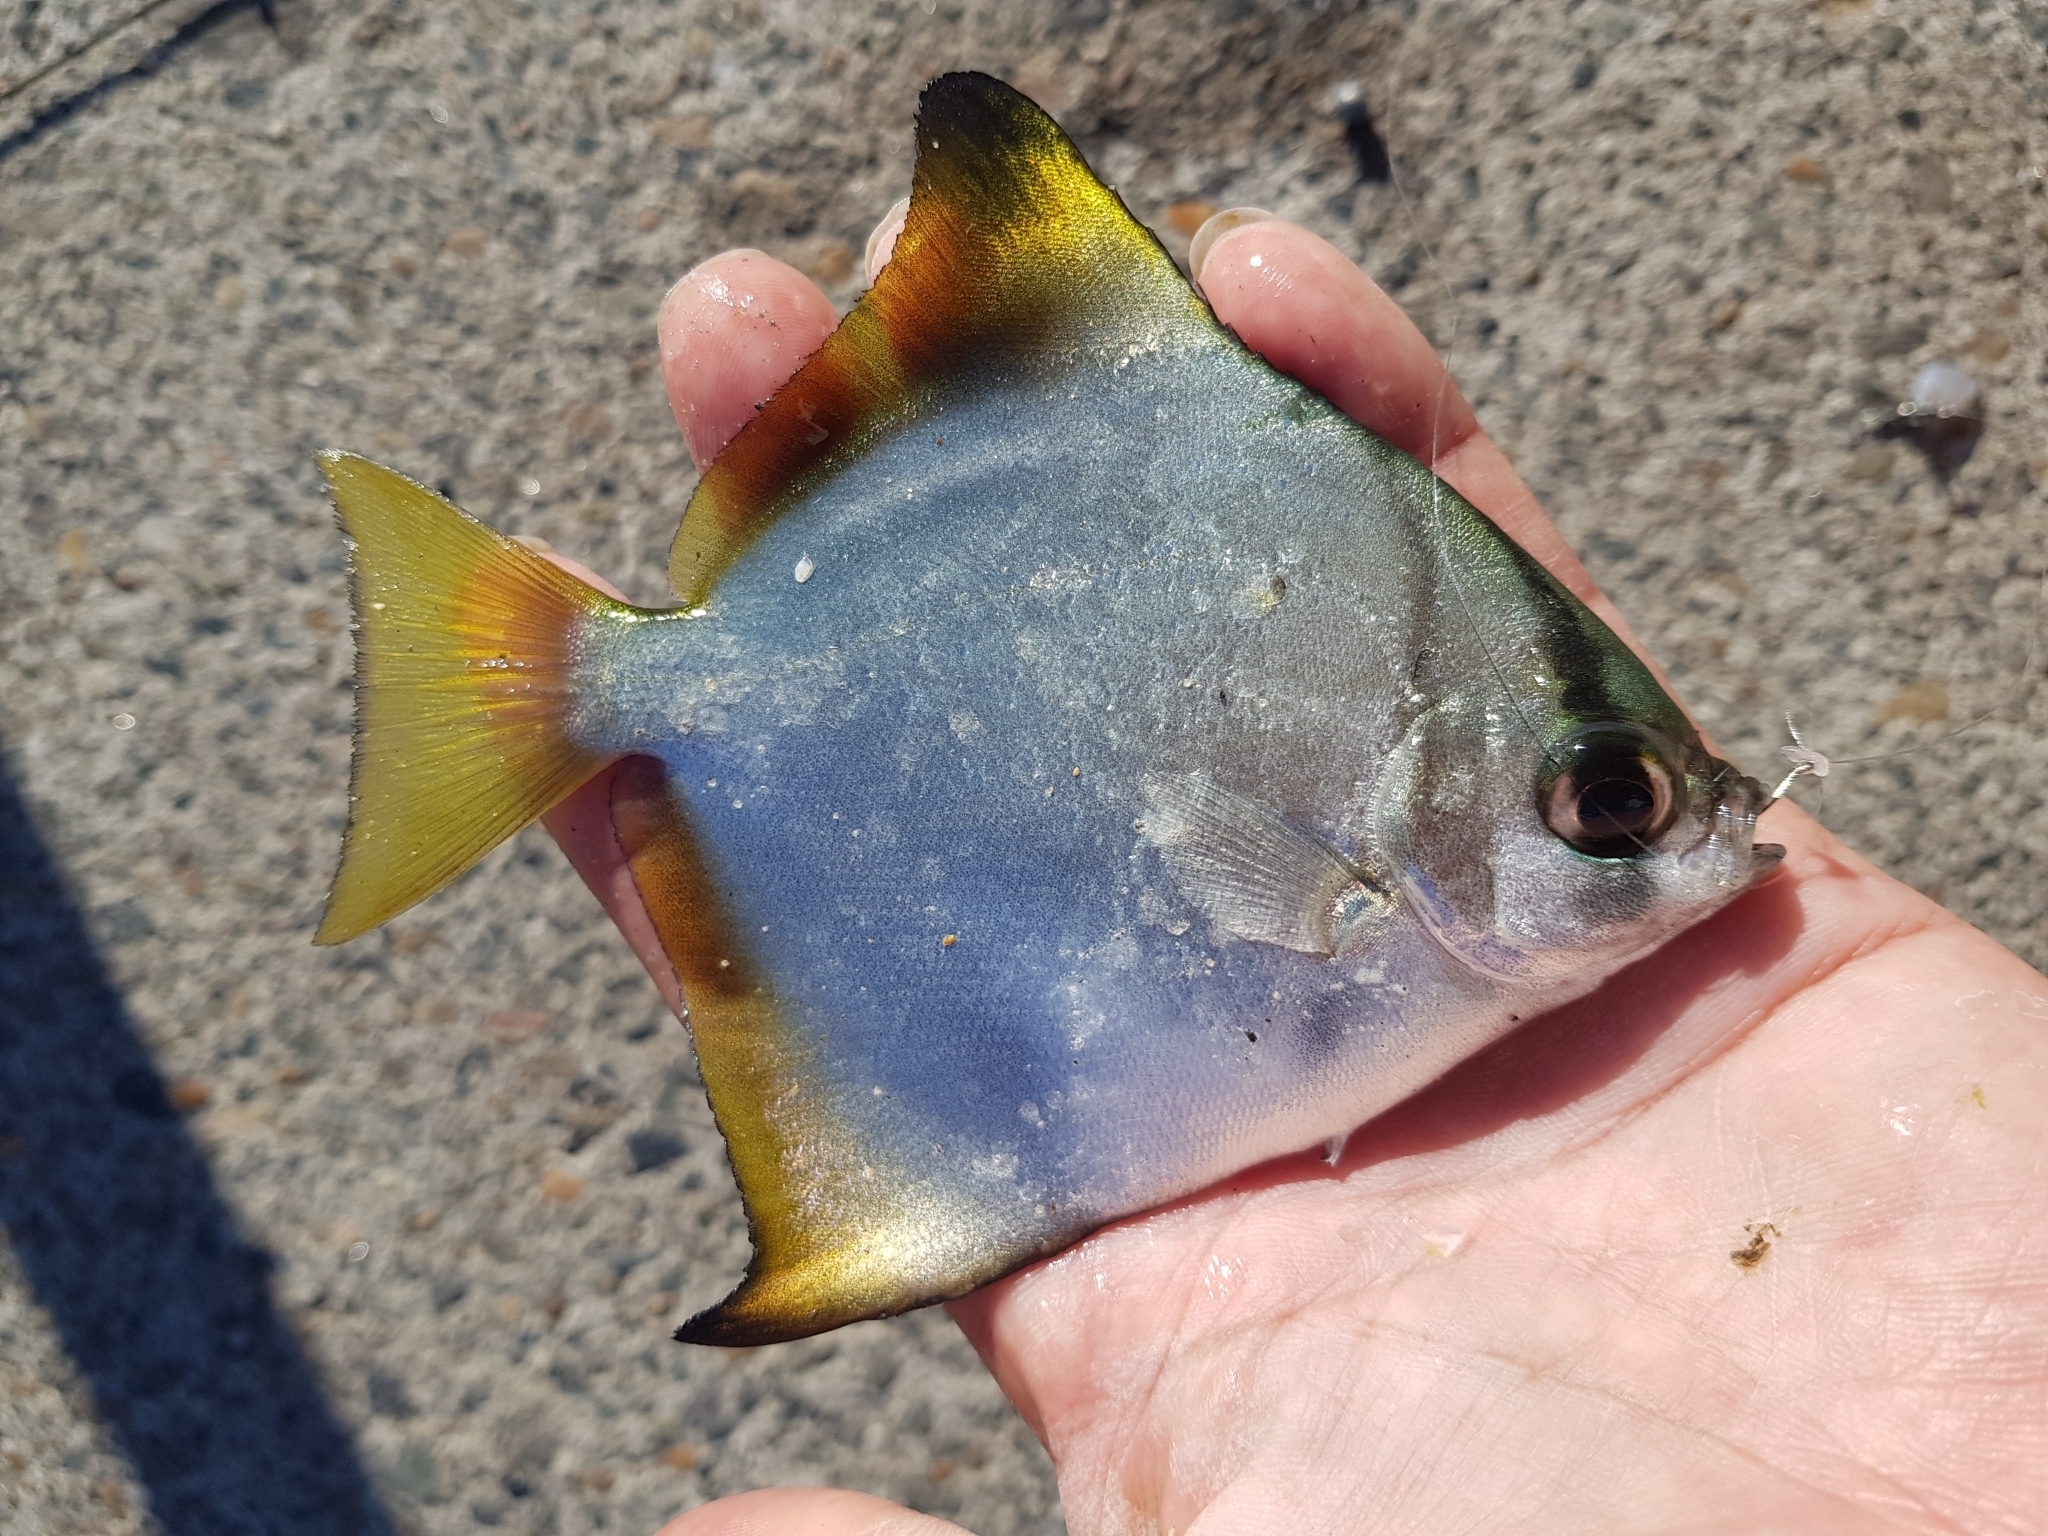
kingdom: Animalia
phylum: Chordata
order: Perciformes
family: Monodactylidae
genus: Monodactylus
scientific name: Monodactylus argenteus
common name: Silver moony
